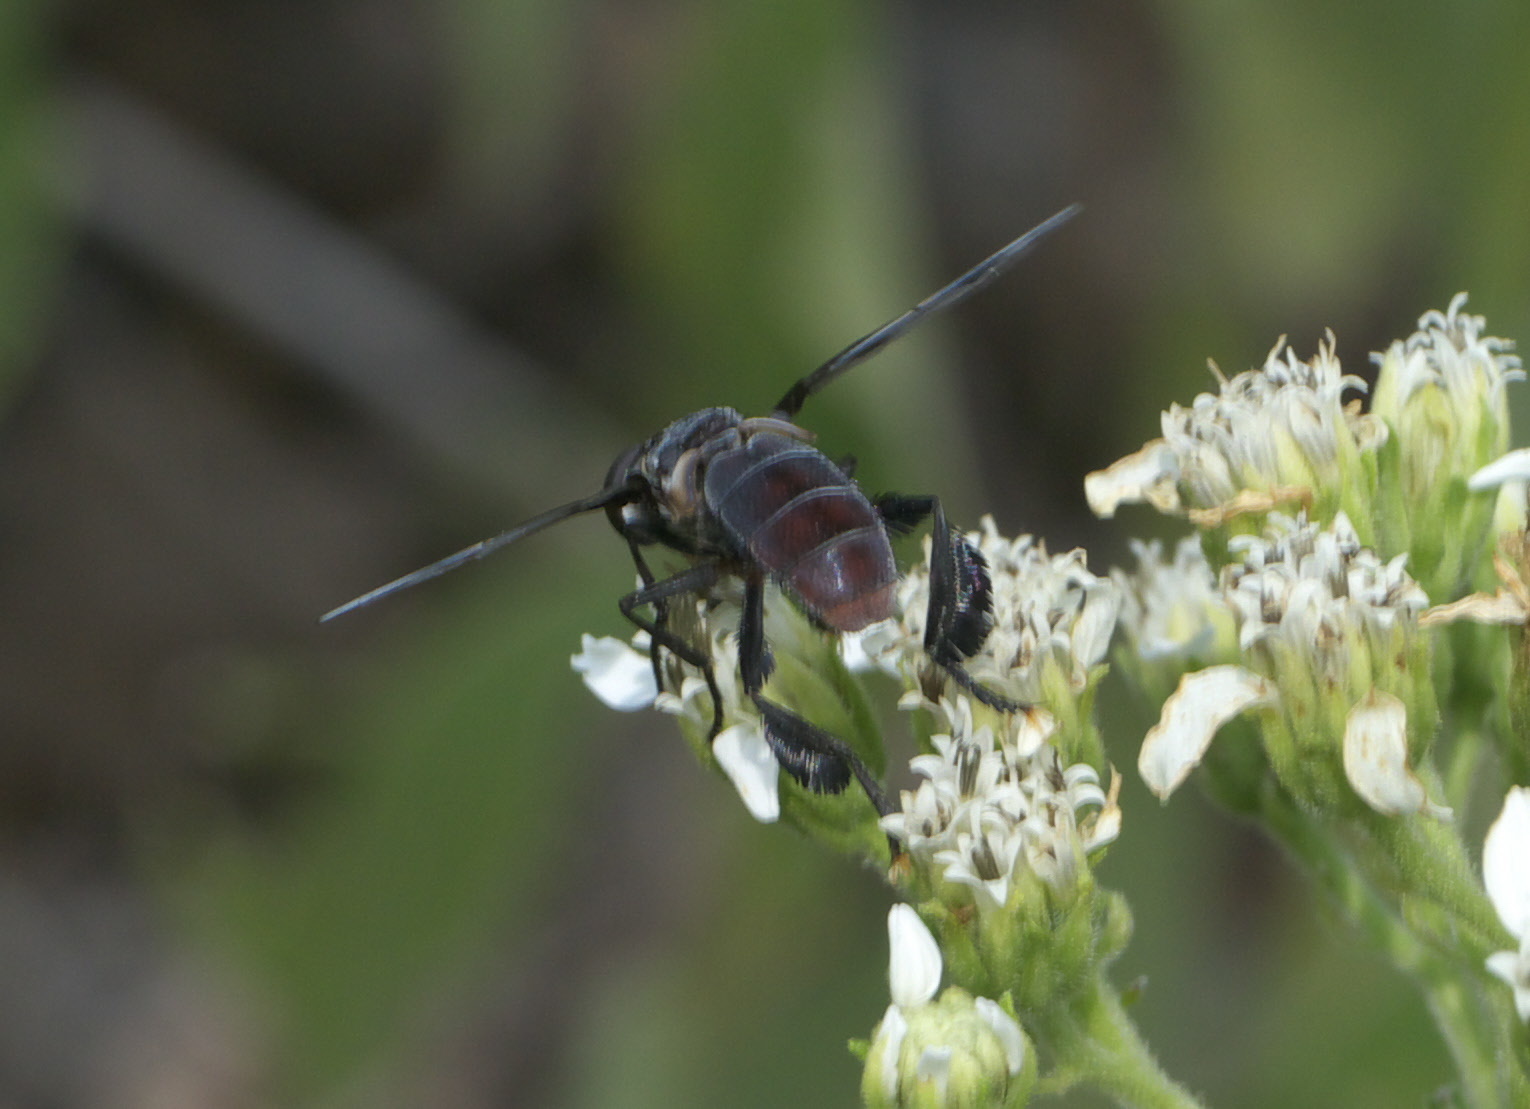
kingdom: Animalia
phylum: Arthropoda
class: Insecta
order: Diptera
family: Tachinidae
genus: Trichopoda
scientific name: Trichopoda lanipes
